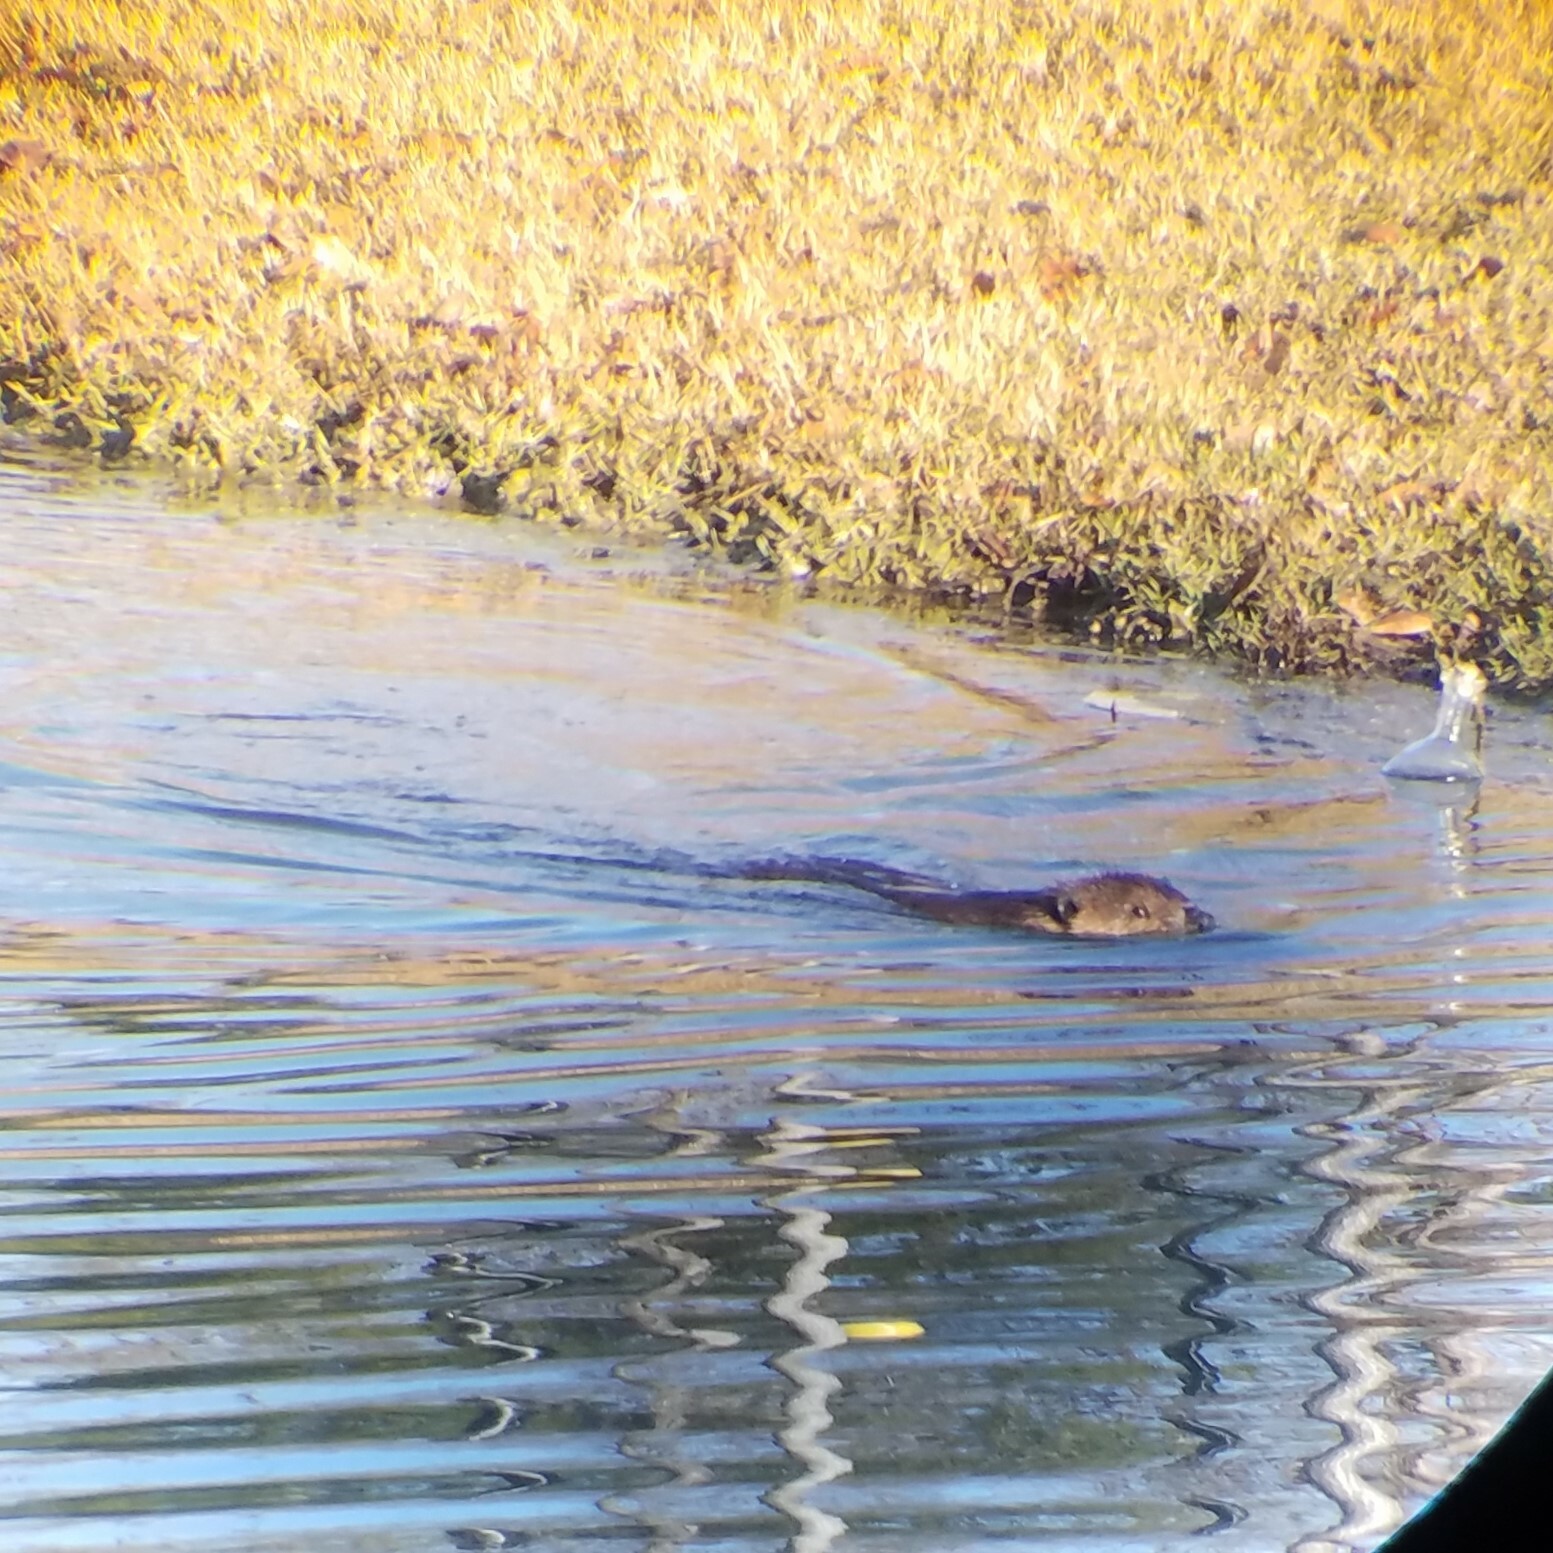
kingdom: Animalia
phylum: Chordata
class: Mammalia
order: Rodentia
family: Castoridae
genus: Castor
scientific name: Castor canadensis
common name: American beaver
